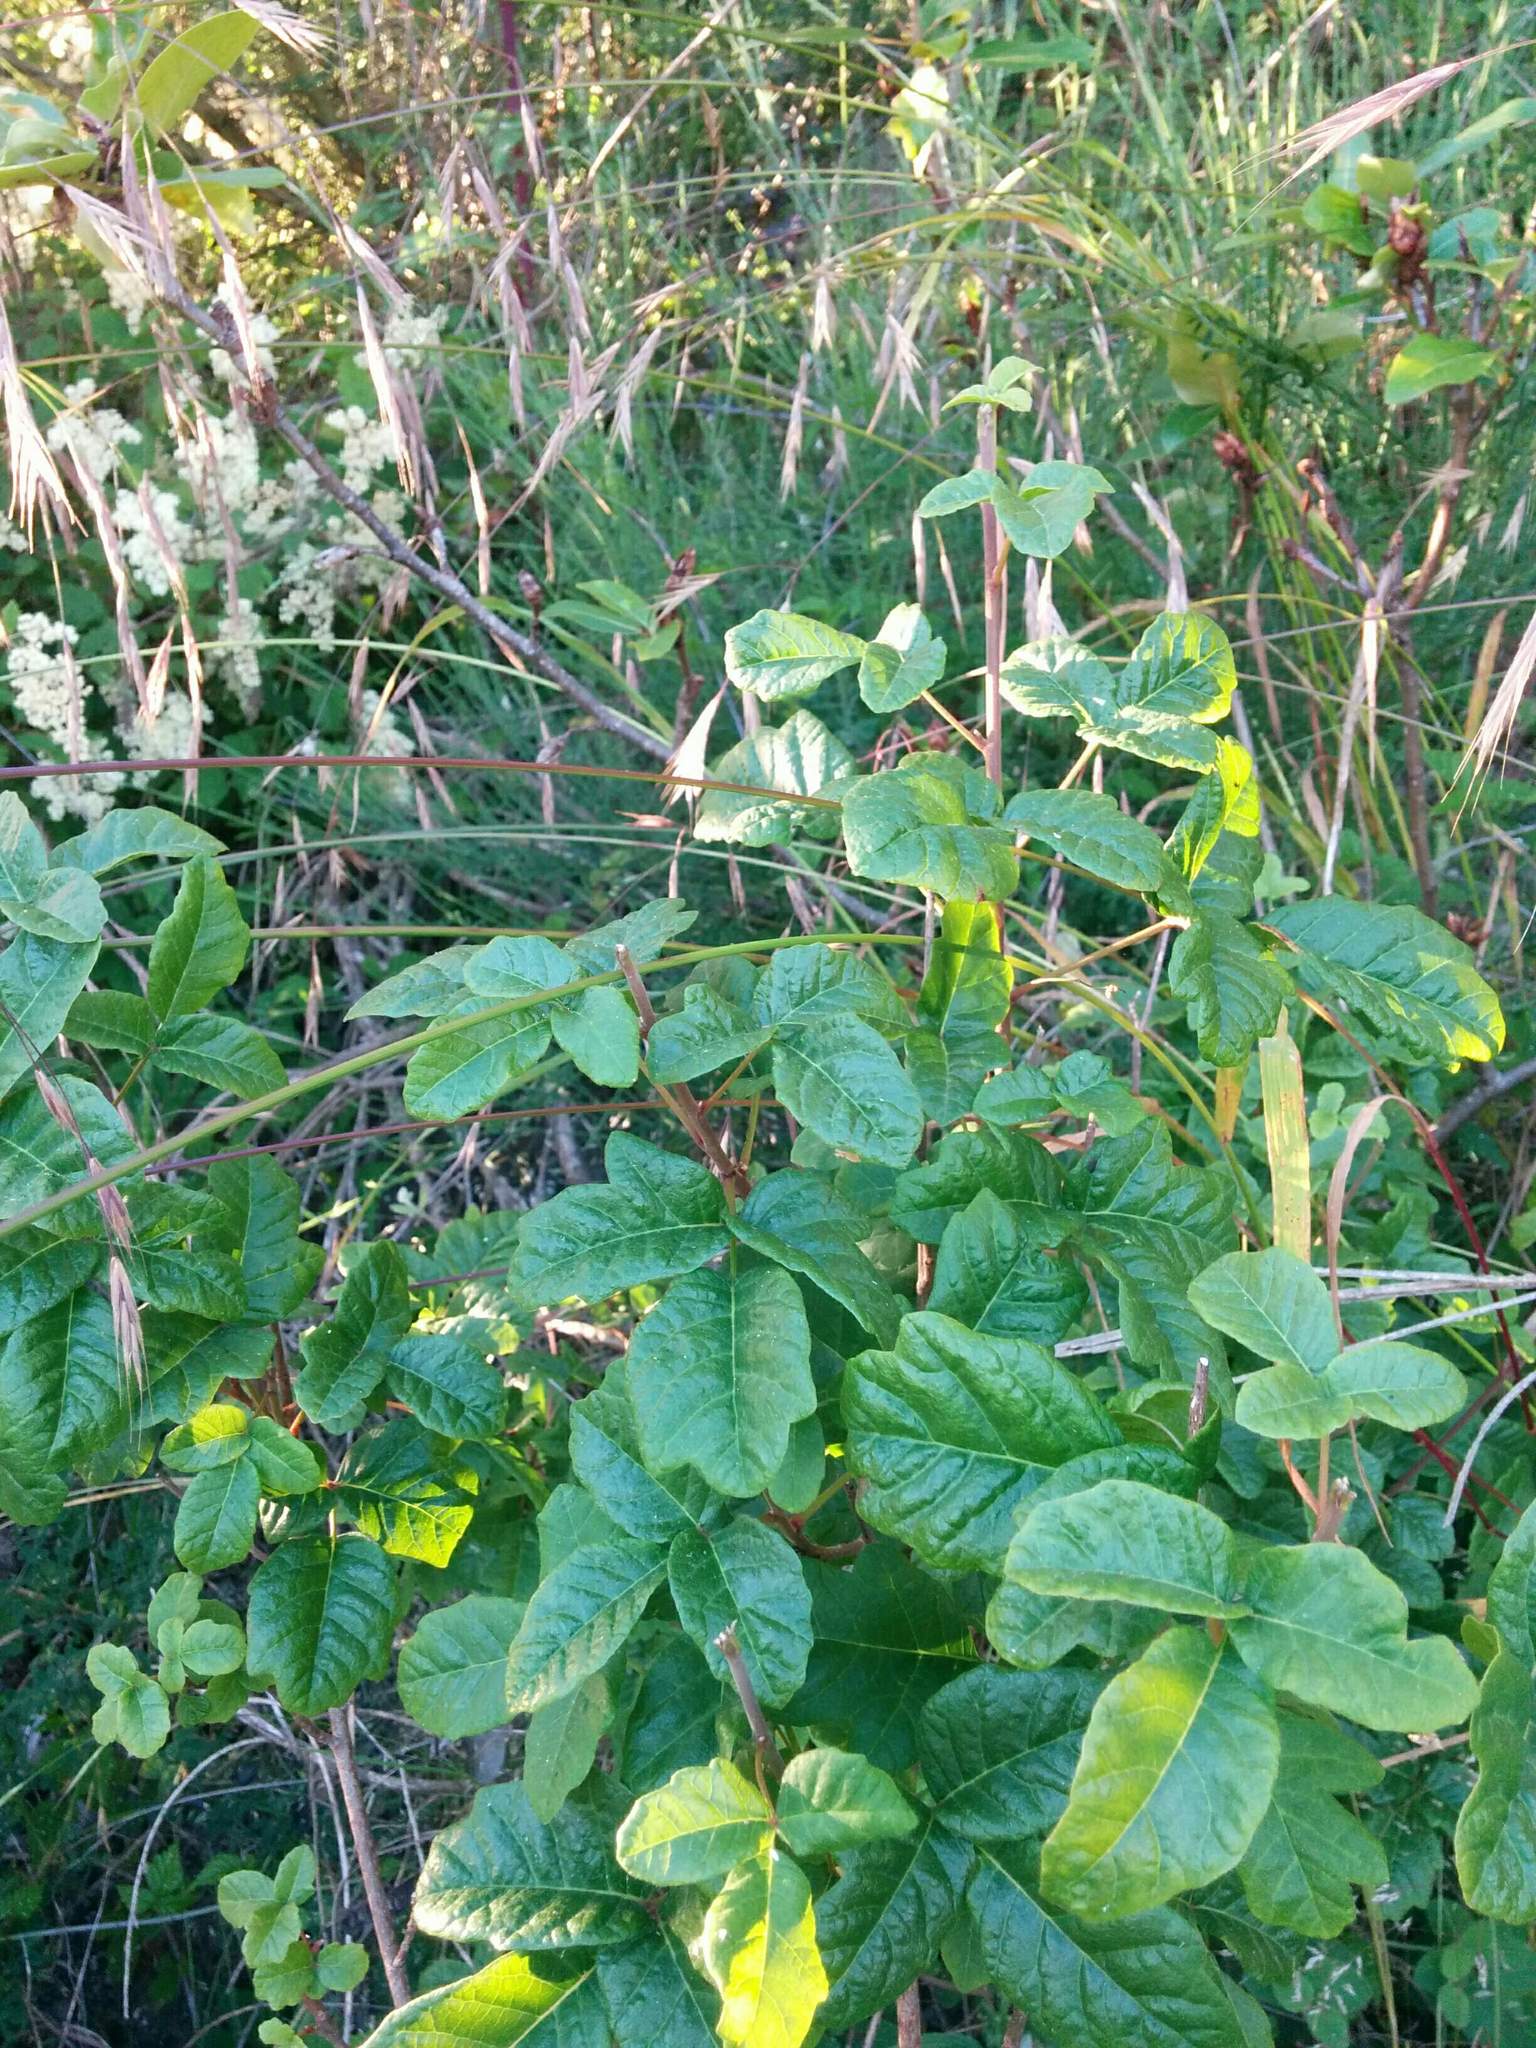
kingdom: Plantae
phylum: Tracheophyta
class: Magnoliopsida
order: Sapindales
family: Anacardiaceae
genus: Toxicodendron
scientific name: Toxicodendron diversilobum
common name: Pacific poison-oak
